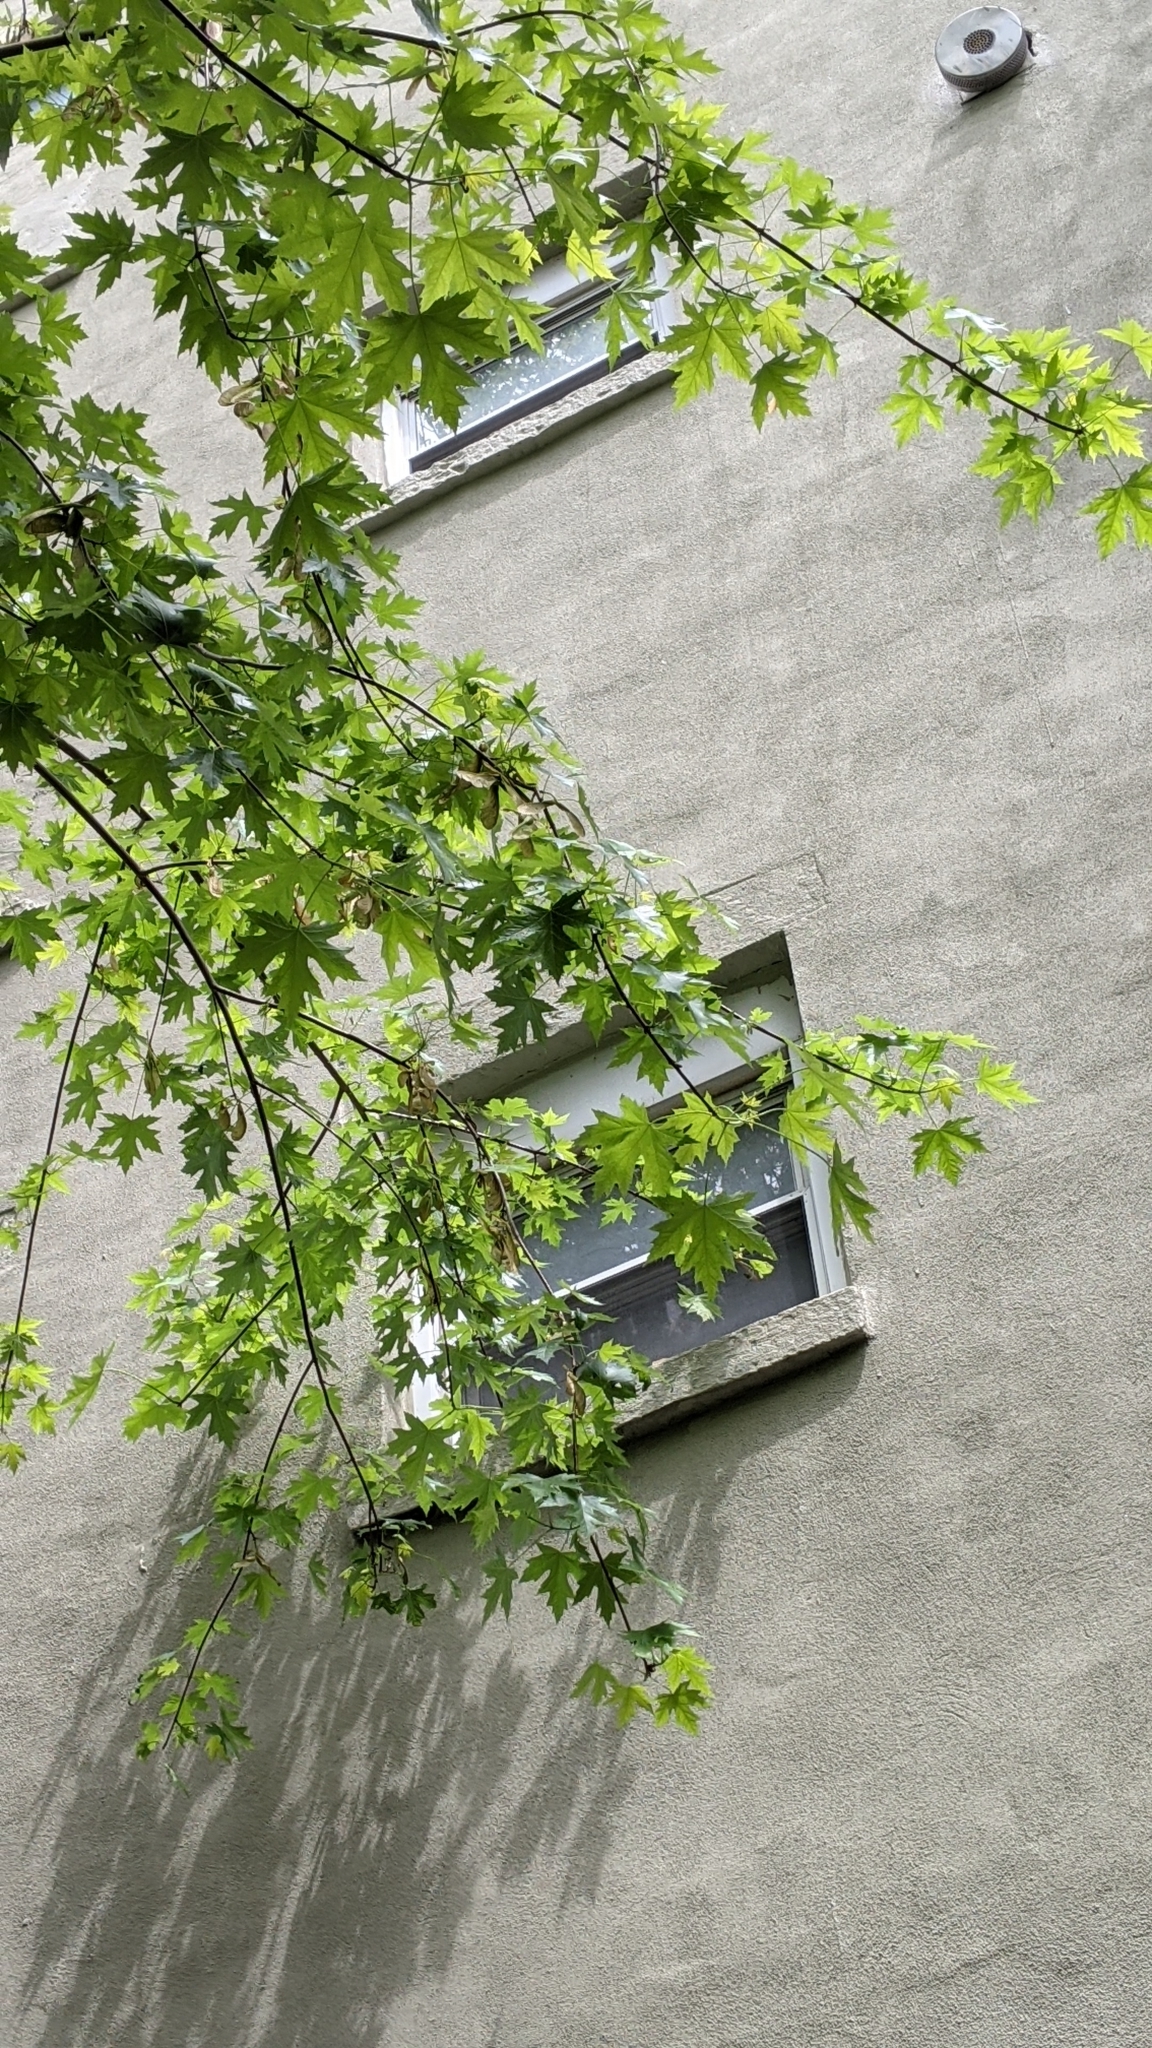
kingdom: Plantae
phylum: Tracheophyta
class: Magnoliopsida
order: Sapindales
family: Sapindaceae
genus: Acer
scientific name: Acer saccharinum
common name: Silver maple
